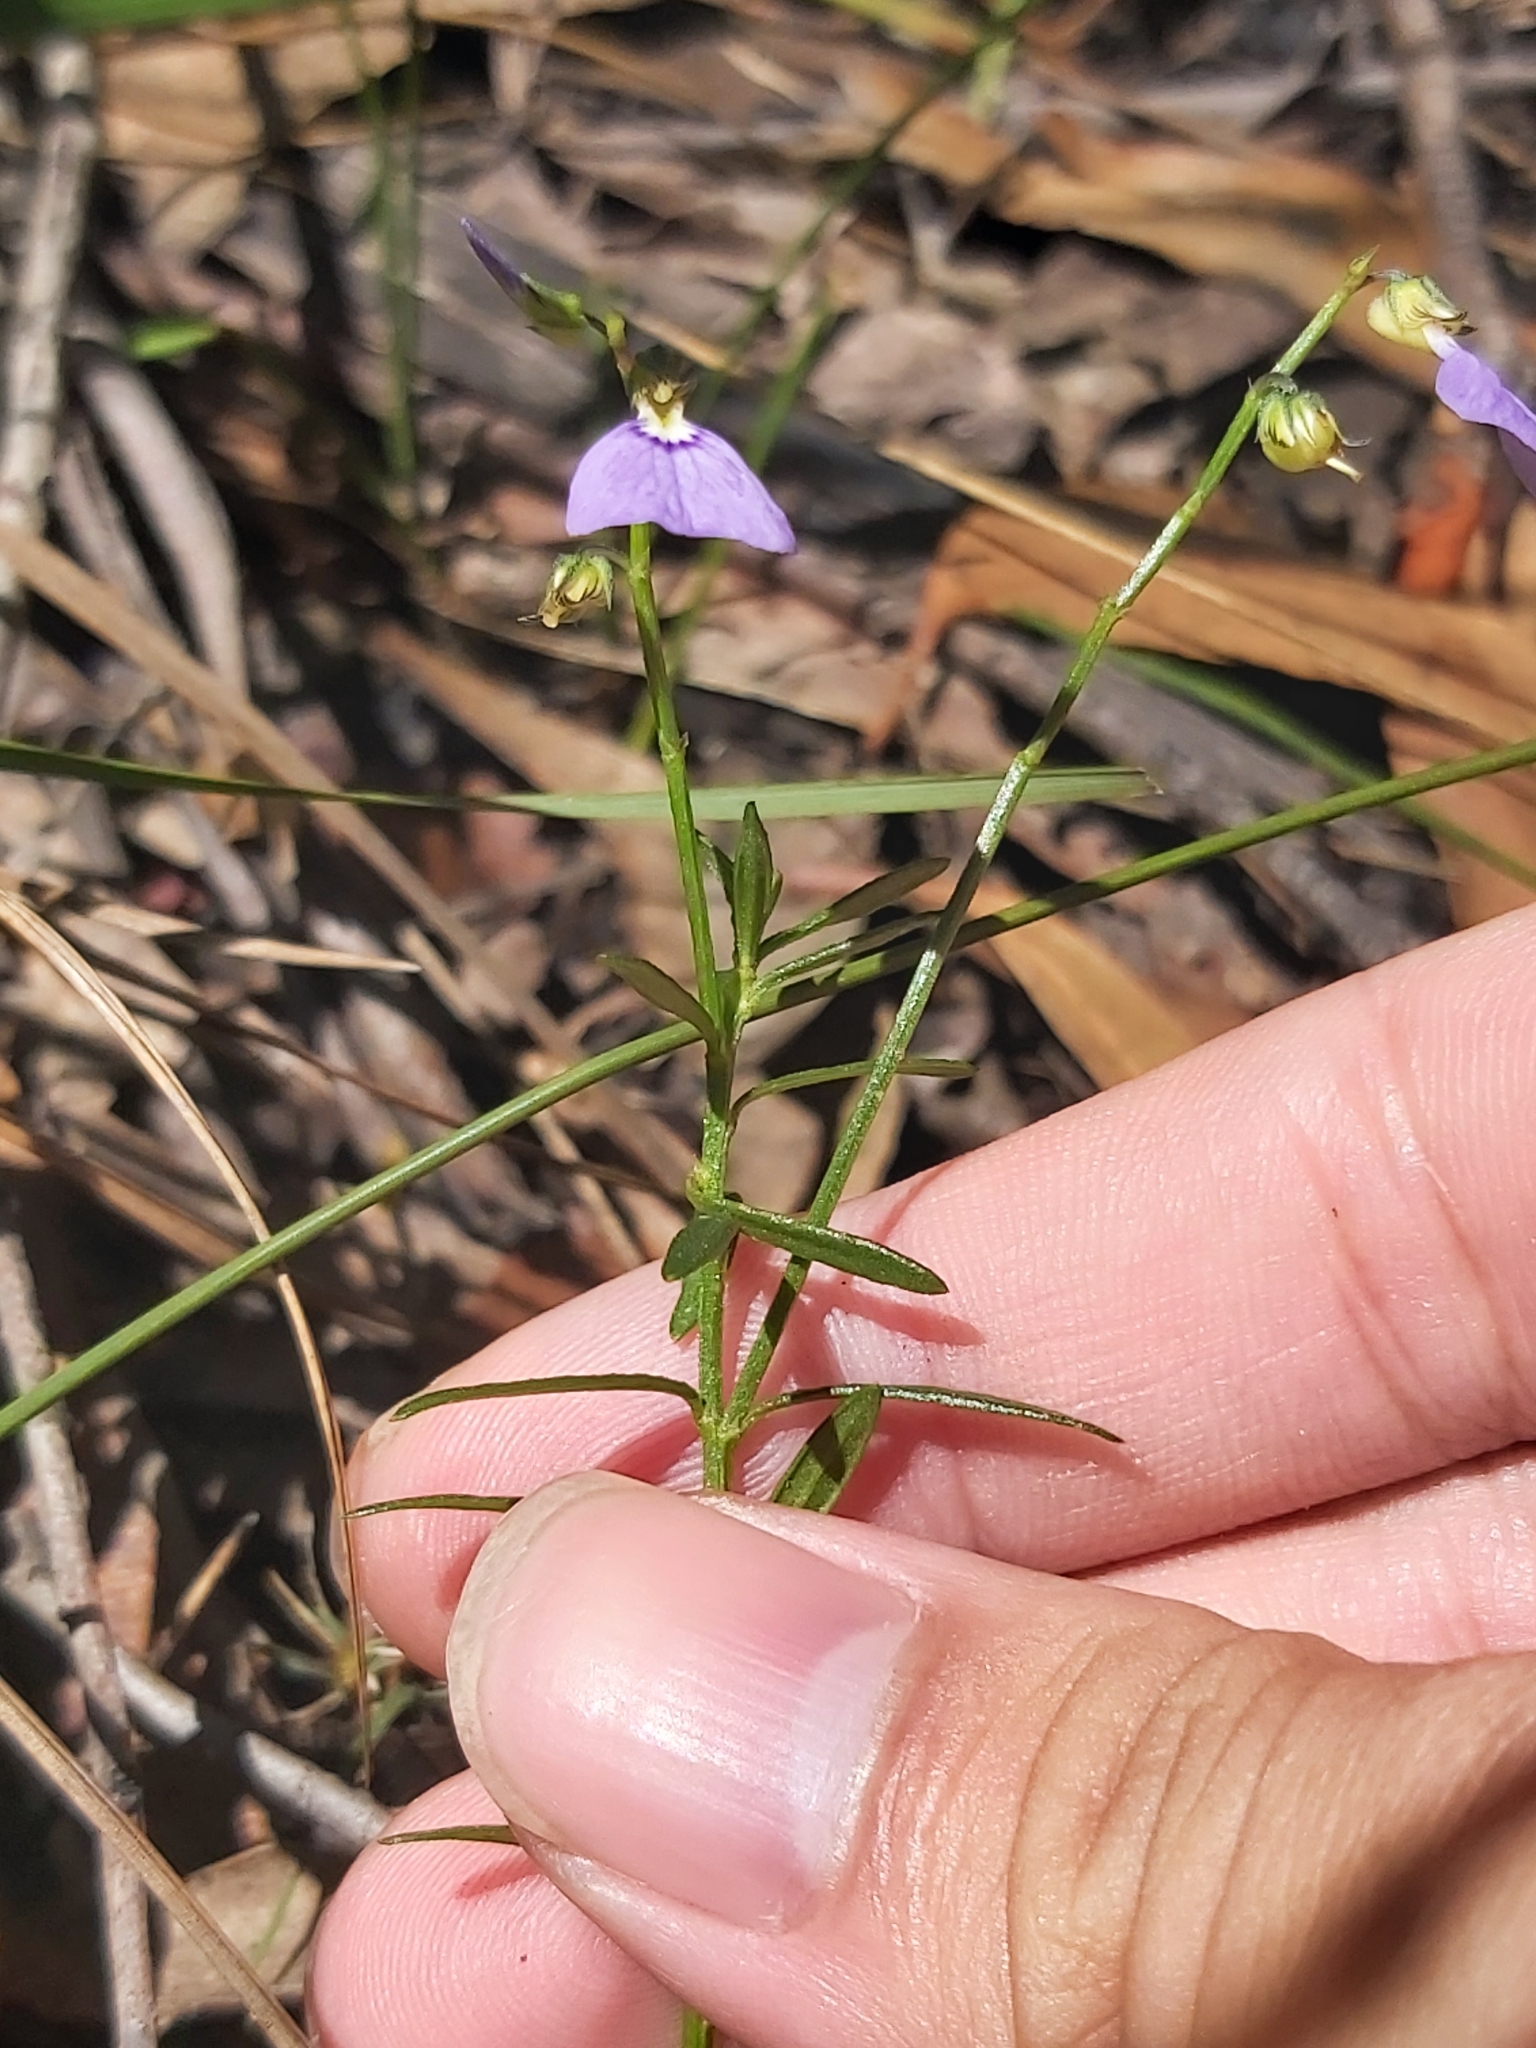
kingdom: Plantae
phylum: Tracheophyta
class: Magnoliopsida
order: Malpighiales
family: Violaceae
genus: Pigea
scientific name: Pigea monopetala
